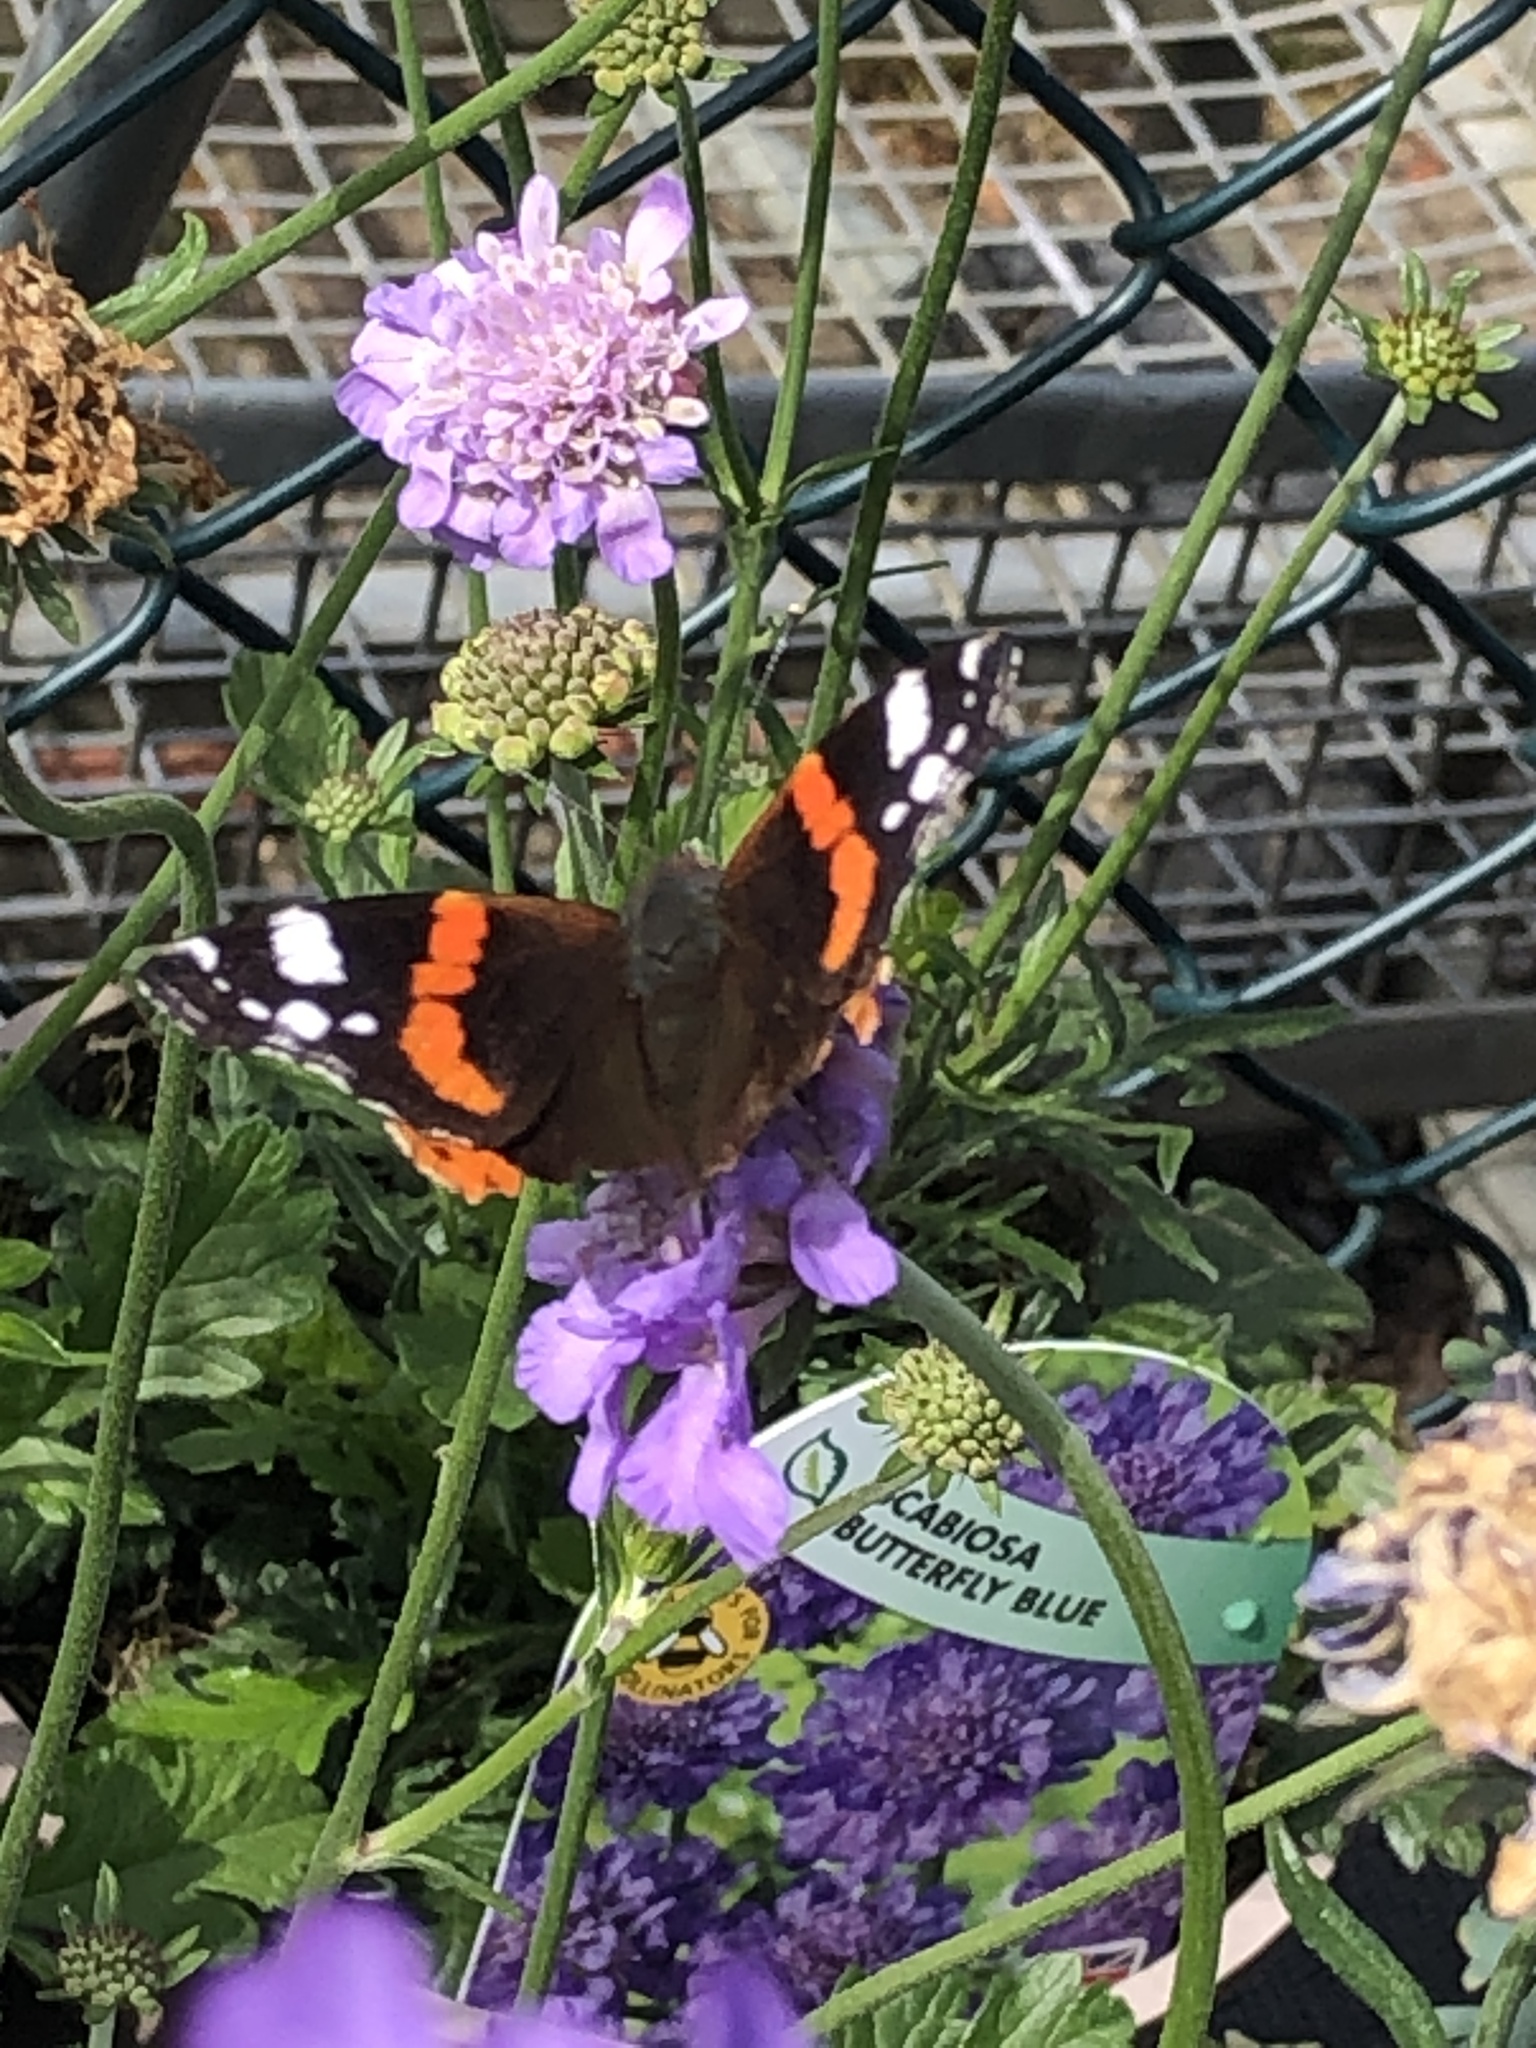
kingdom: Animalia
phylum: Arthropoda
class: Insecta
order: Lepidoptera
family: Nymphalidae
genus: Vanessa
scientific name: Vanessa atalanta
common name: Red admiral
